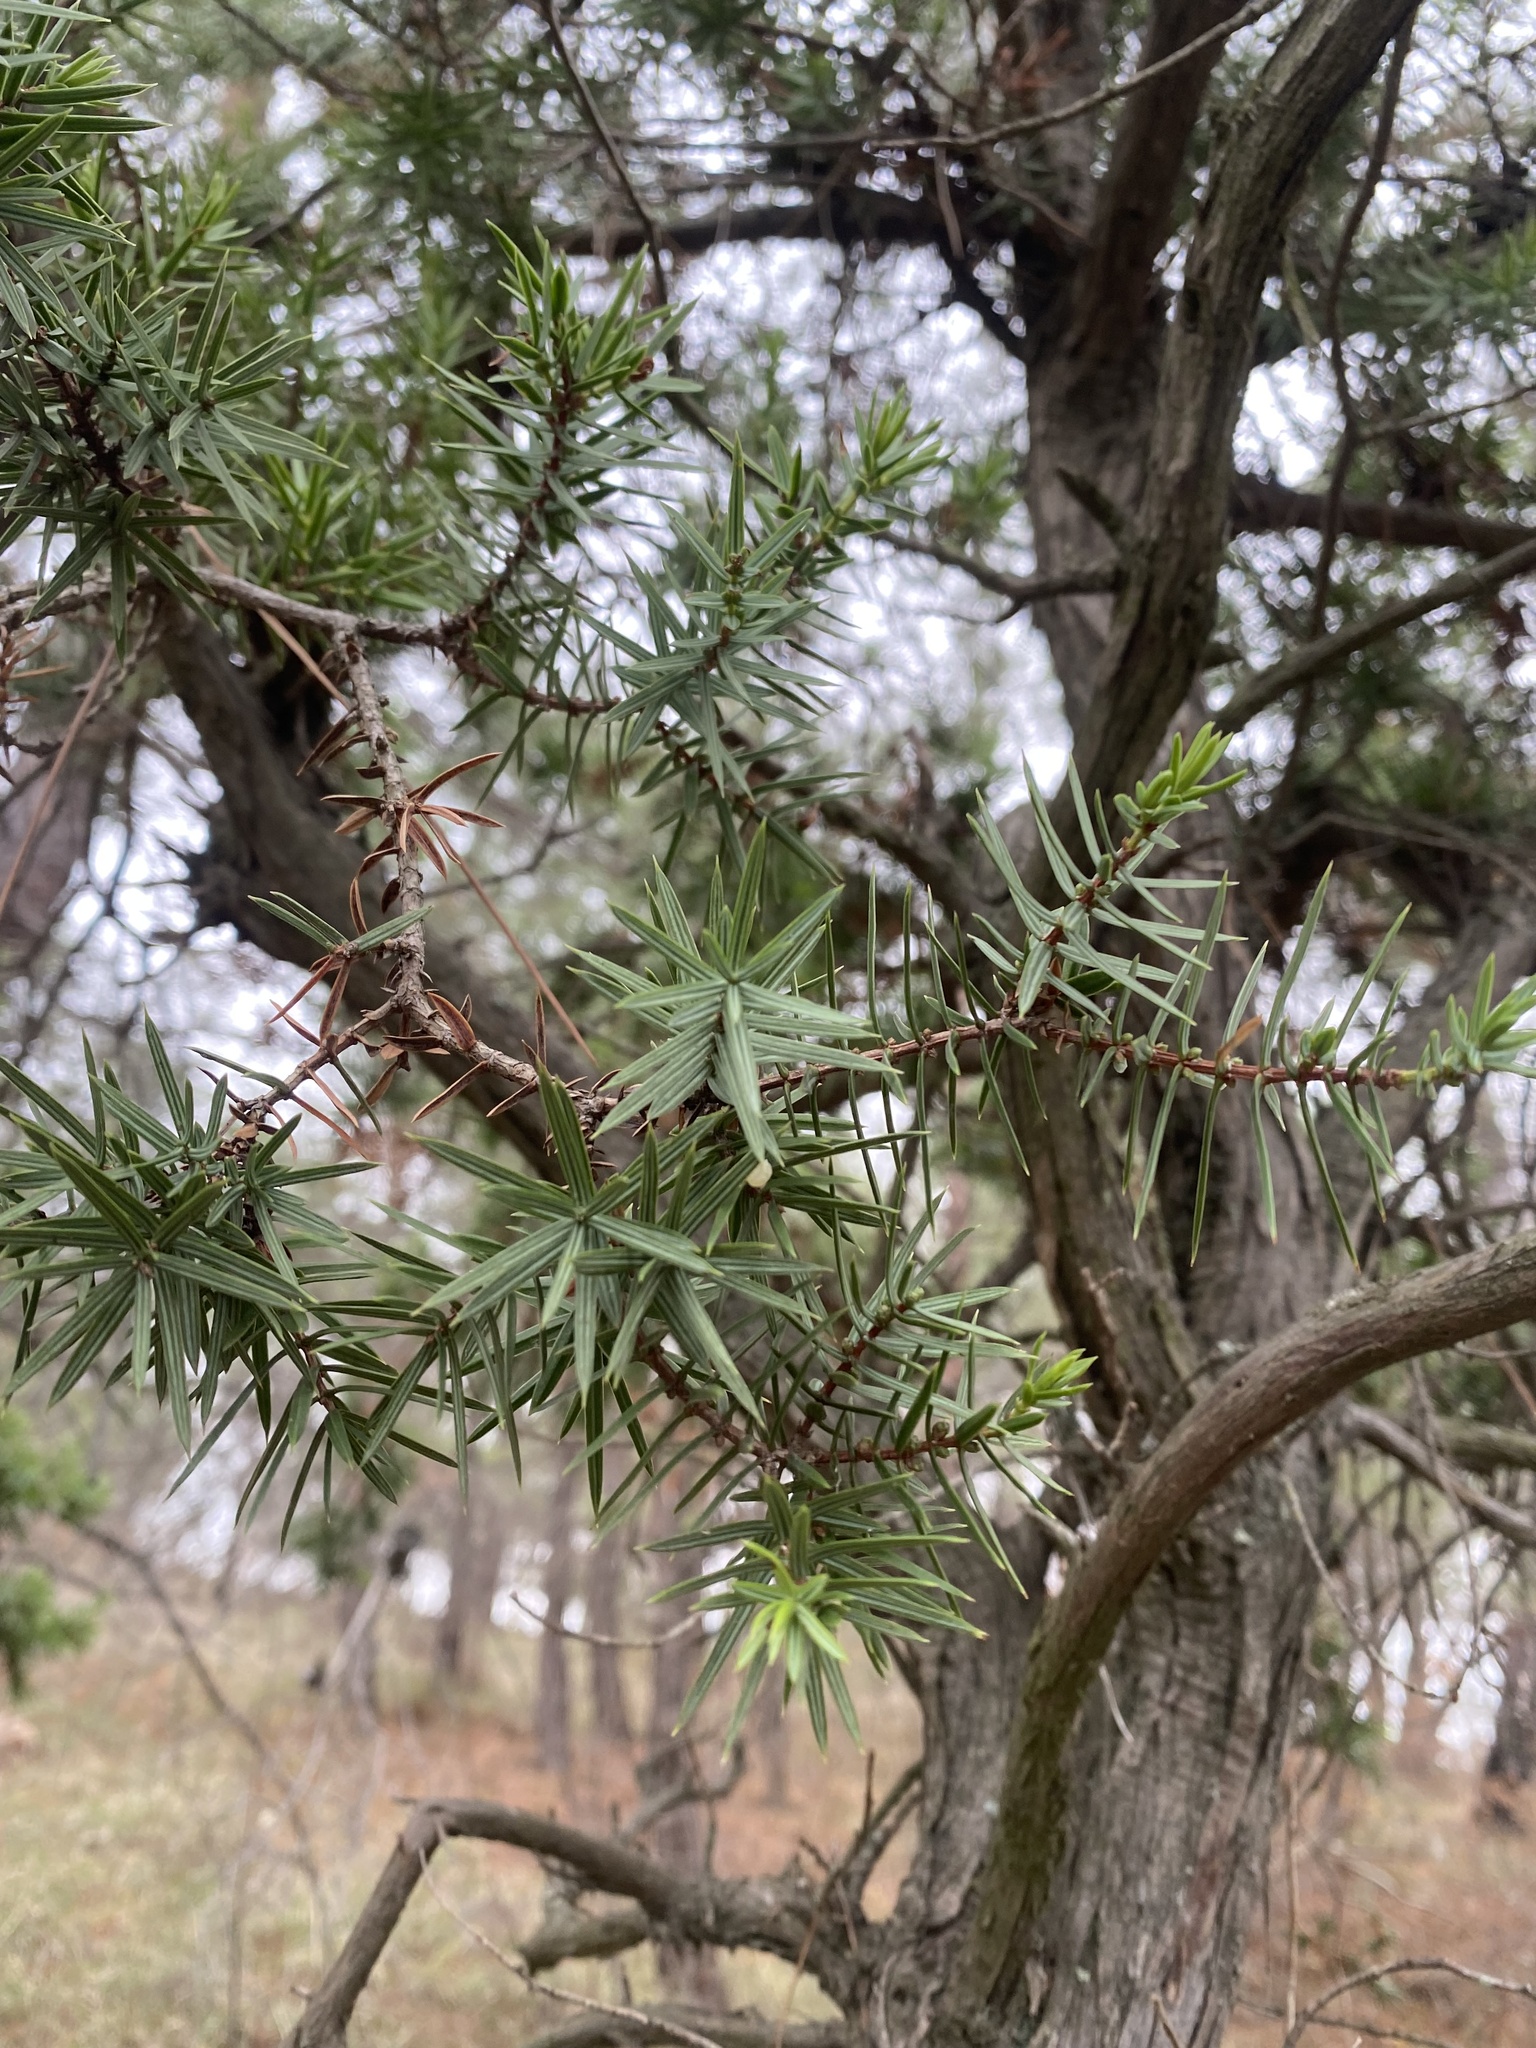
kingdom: Plantae
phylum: Tracheophyta
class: Pinopsida
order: Pinales
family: Cupressaceae
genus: Juniperus
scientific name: Juniperus oxycedrus
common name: Prickly juniper
